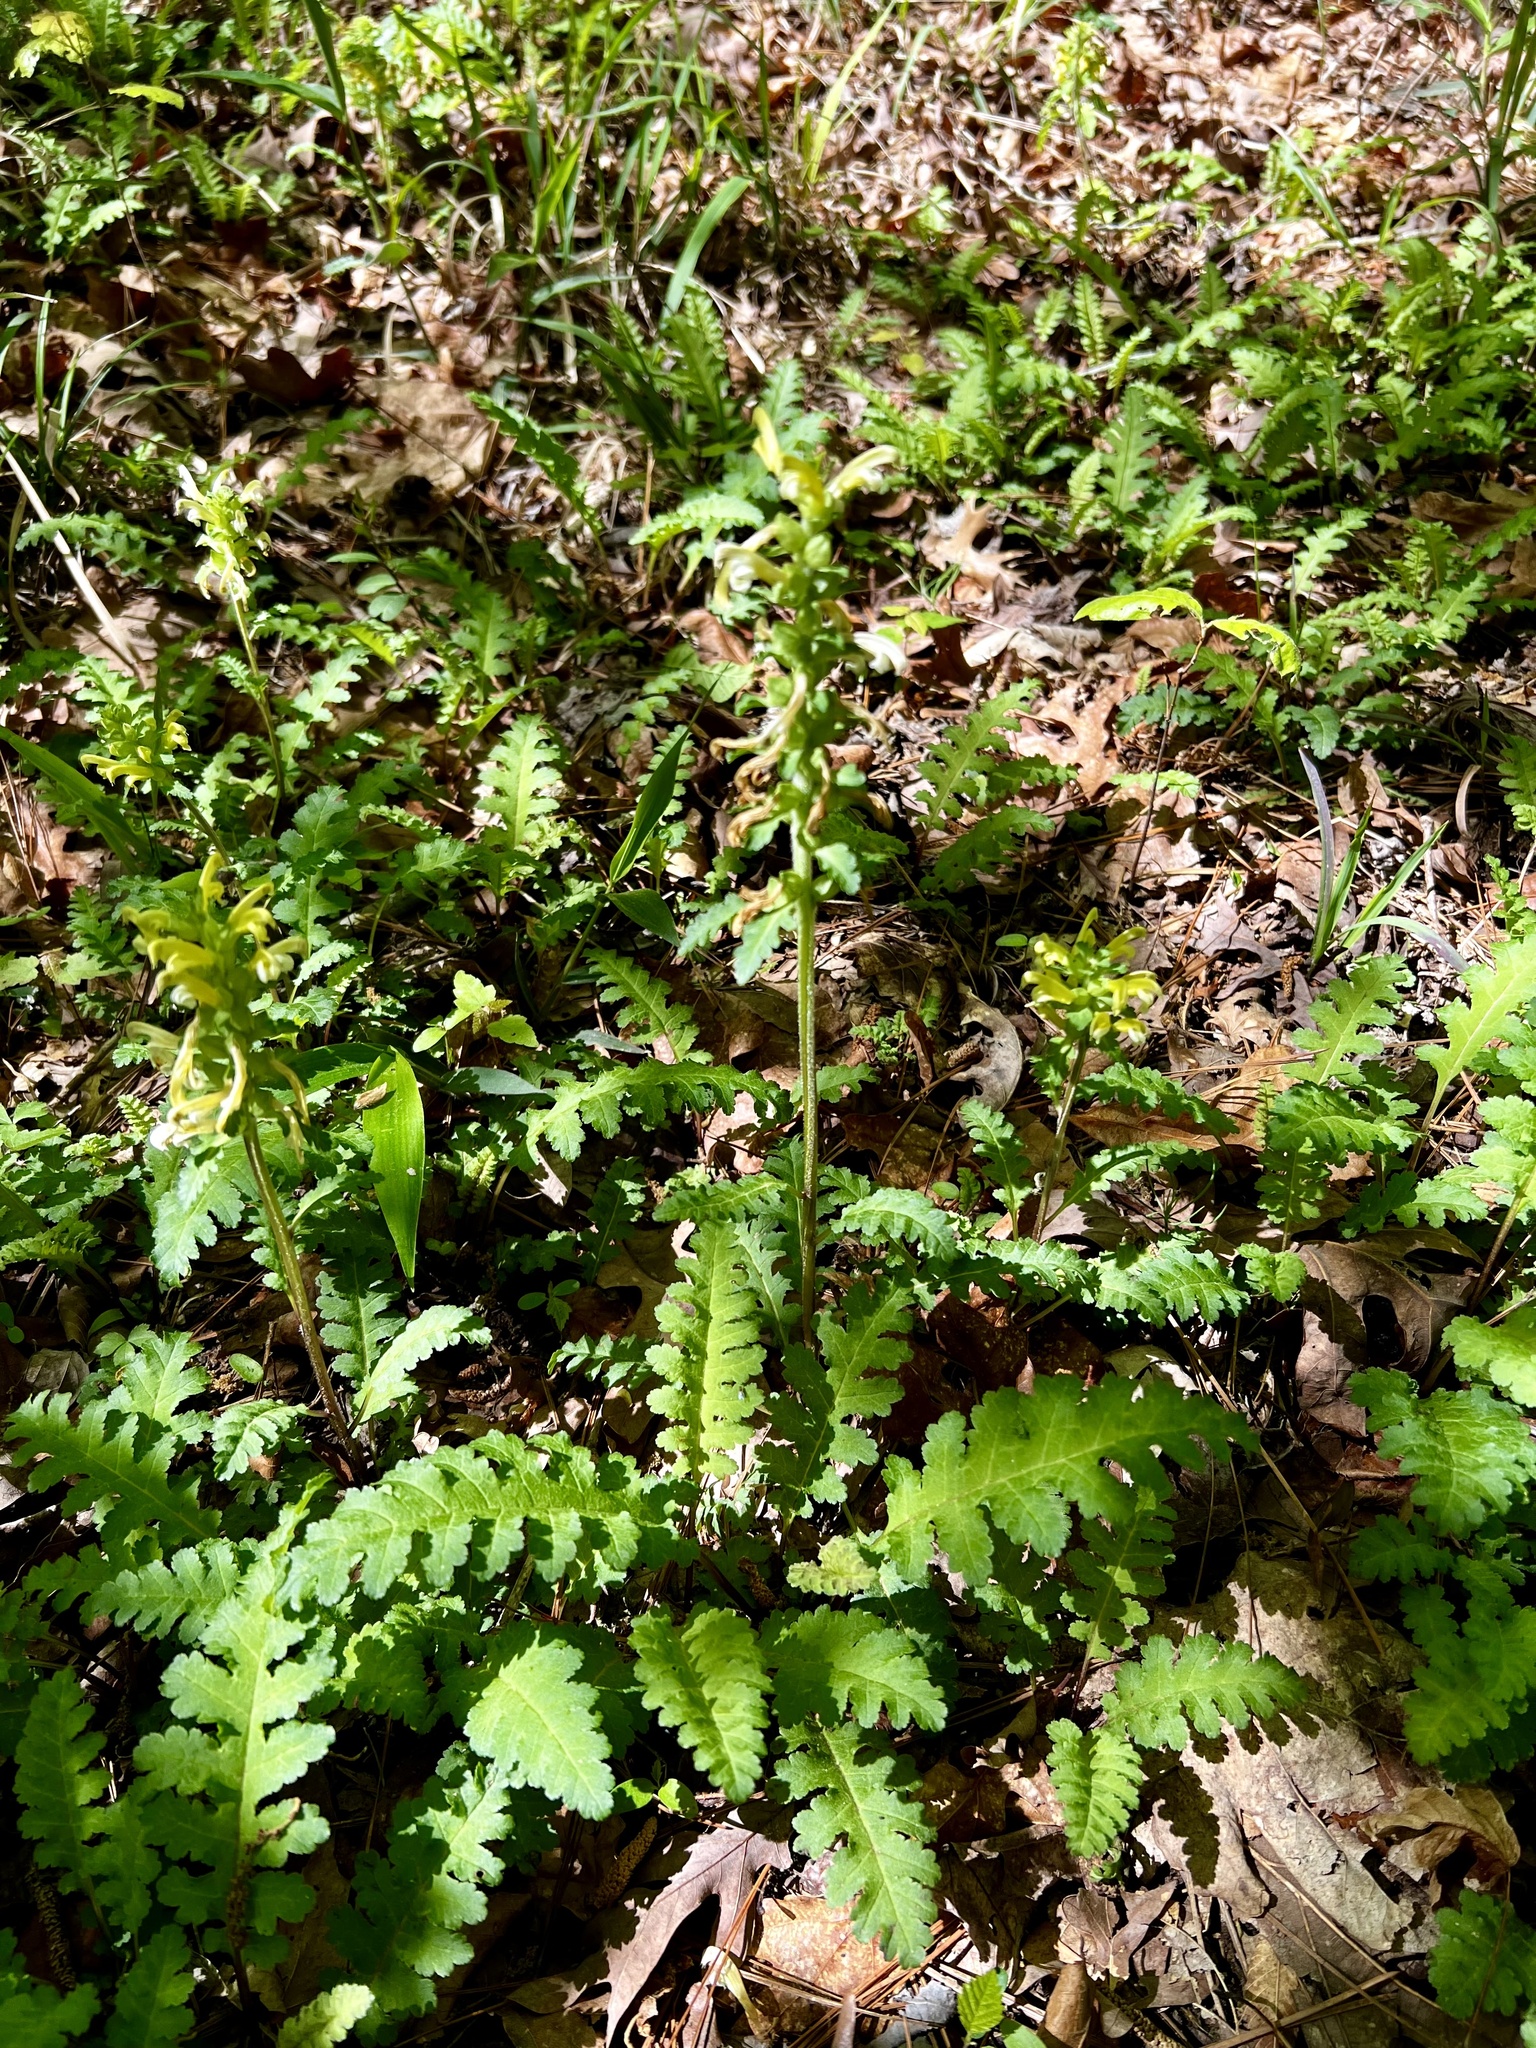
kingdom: Plantae
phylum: Tracheophyta
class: Magnoliopsida
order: Lamiales
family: Orobanchaceae
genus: Pedicularis
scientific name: Pedicularis canadensis
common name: Early lousewort
